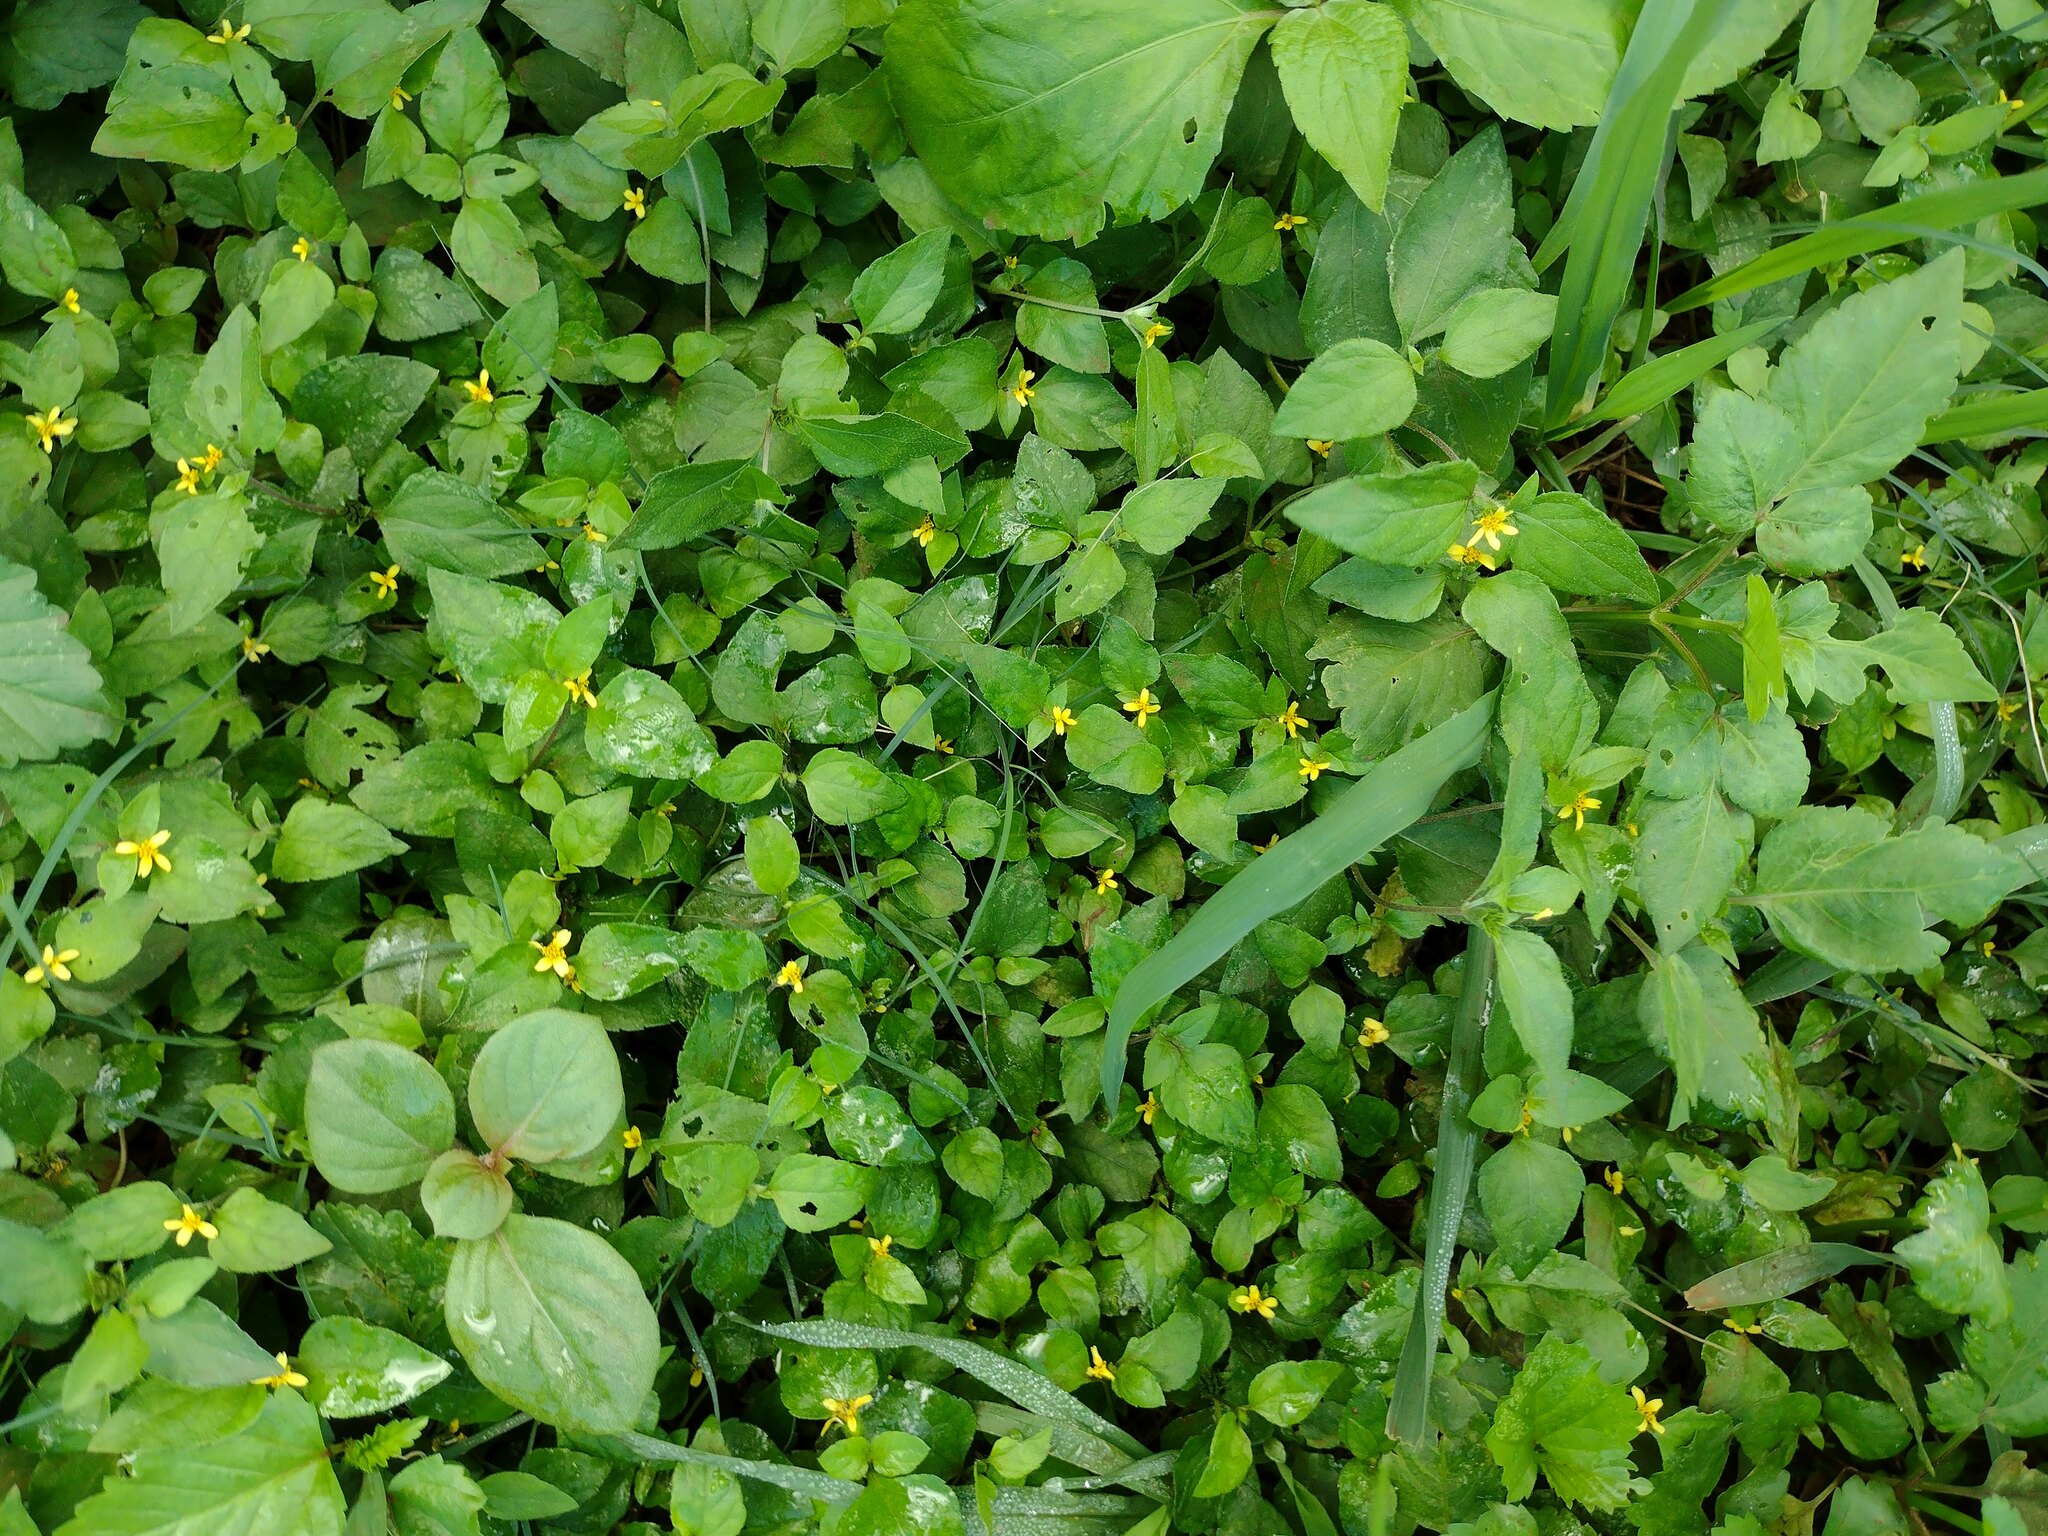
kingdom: Plantae
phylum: Tracheophyta
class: Magnoliopsida
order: Asterales
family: Asteraceae
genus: Calyptocarpus
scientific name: Calyptocarpus vialis
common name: Straggler daisy
